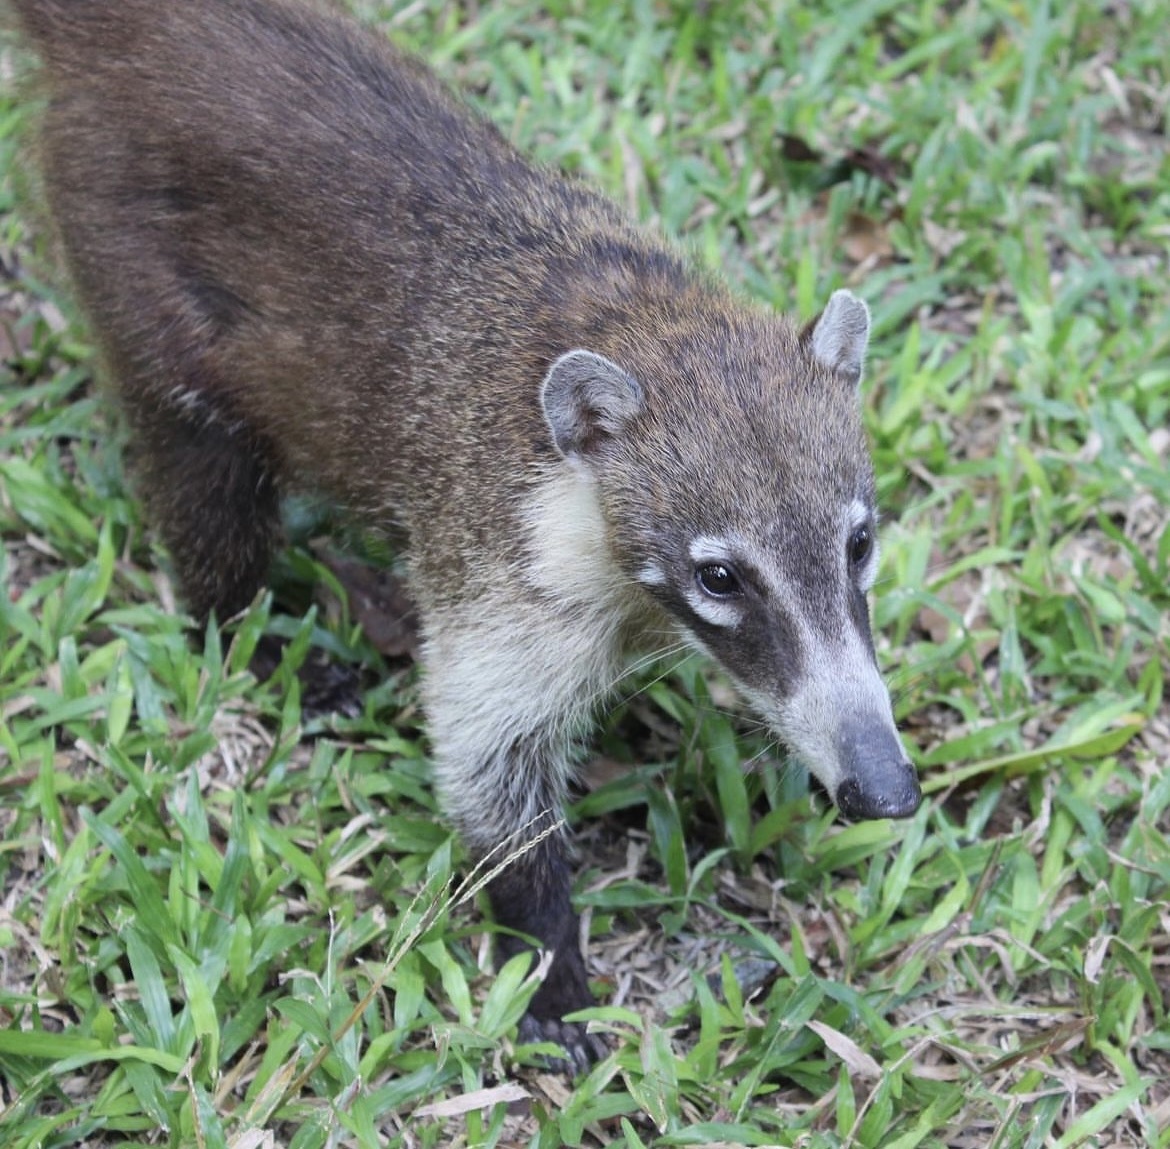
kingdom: Animalia
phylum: Chordata
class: Mammalia
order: Carnivora
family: Procyonidae
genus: Nasua
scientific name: Nasua narica
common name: White-nosed coati
